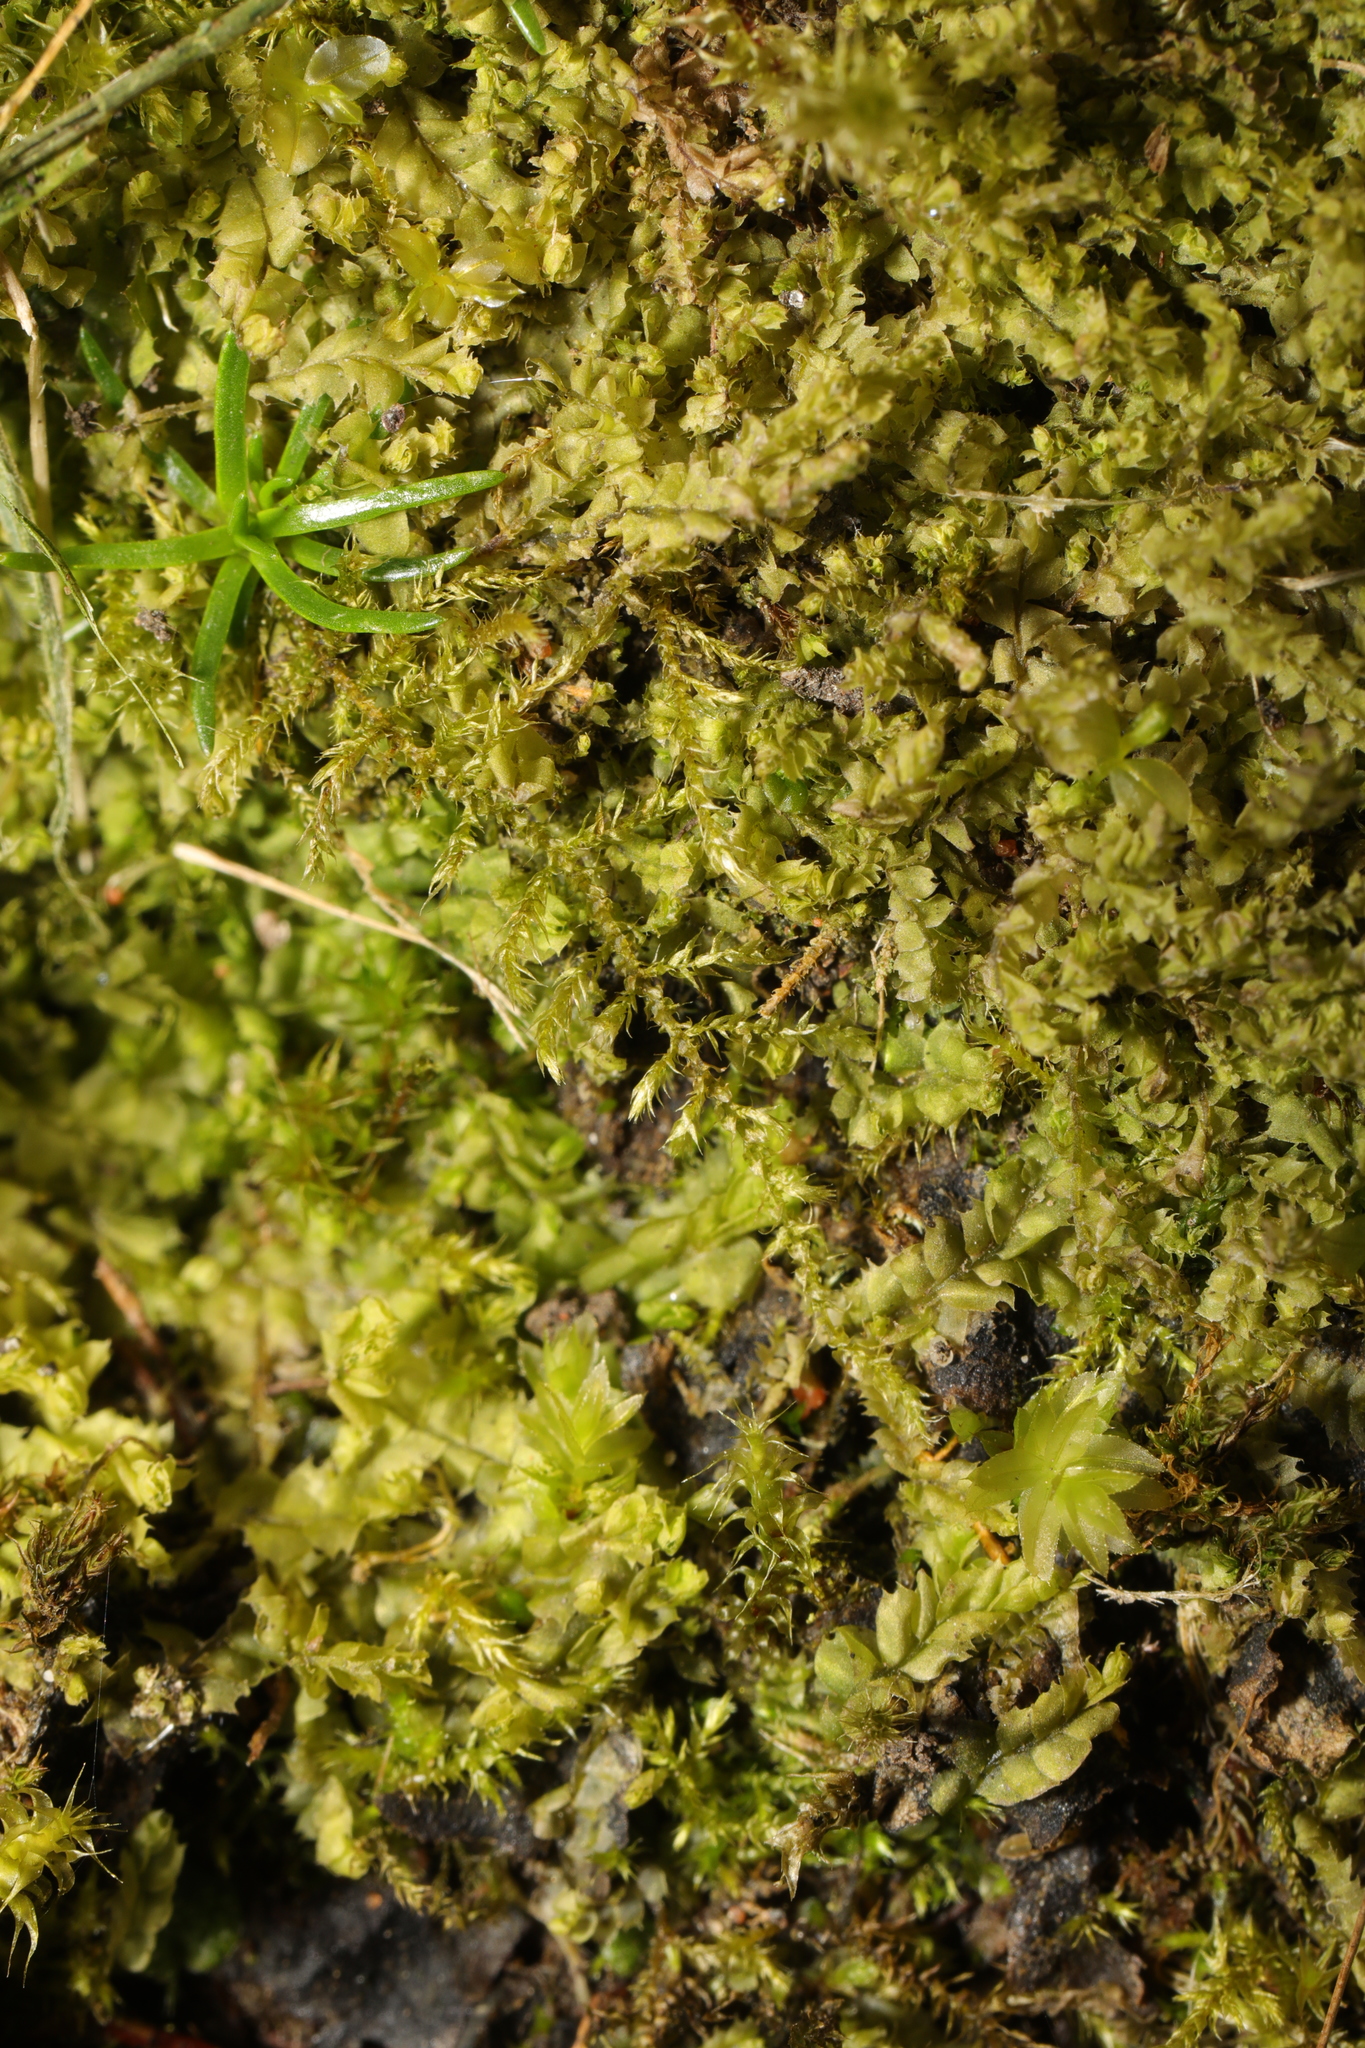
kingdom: Plantae
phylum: Marchantiophyta
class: Jungermanniopsida
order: Jungermanniales
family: Lophocoleaceae
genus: Lophocolea
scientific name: Lophocolea bidentata
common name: Bifid crestwort
